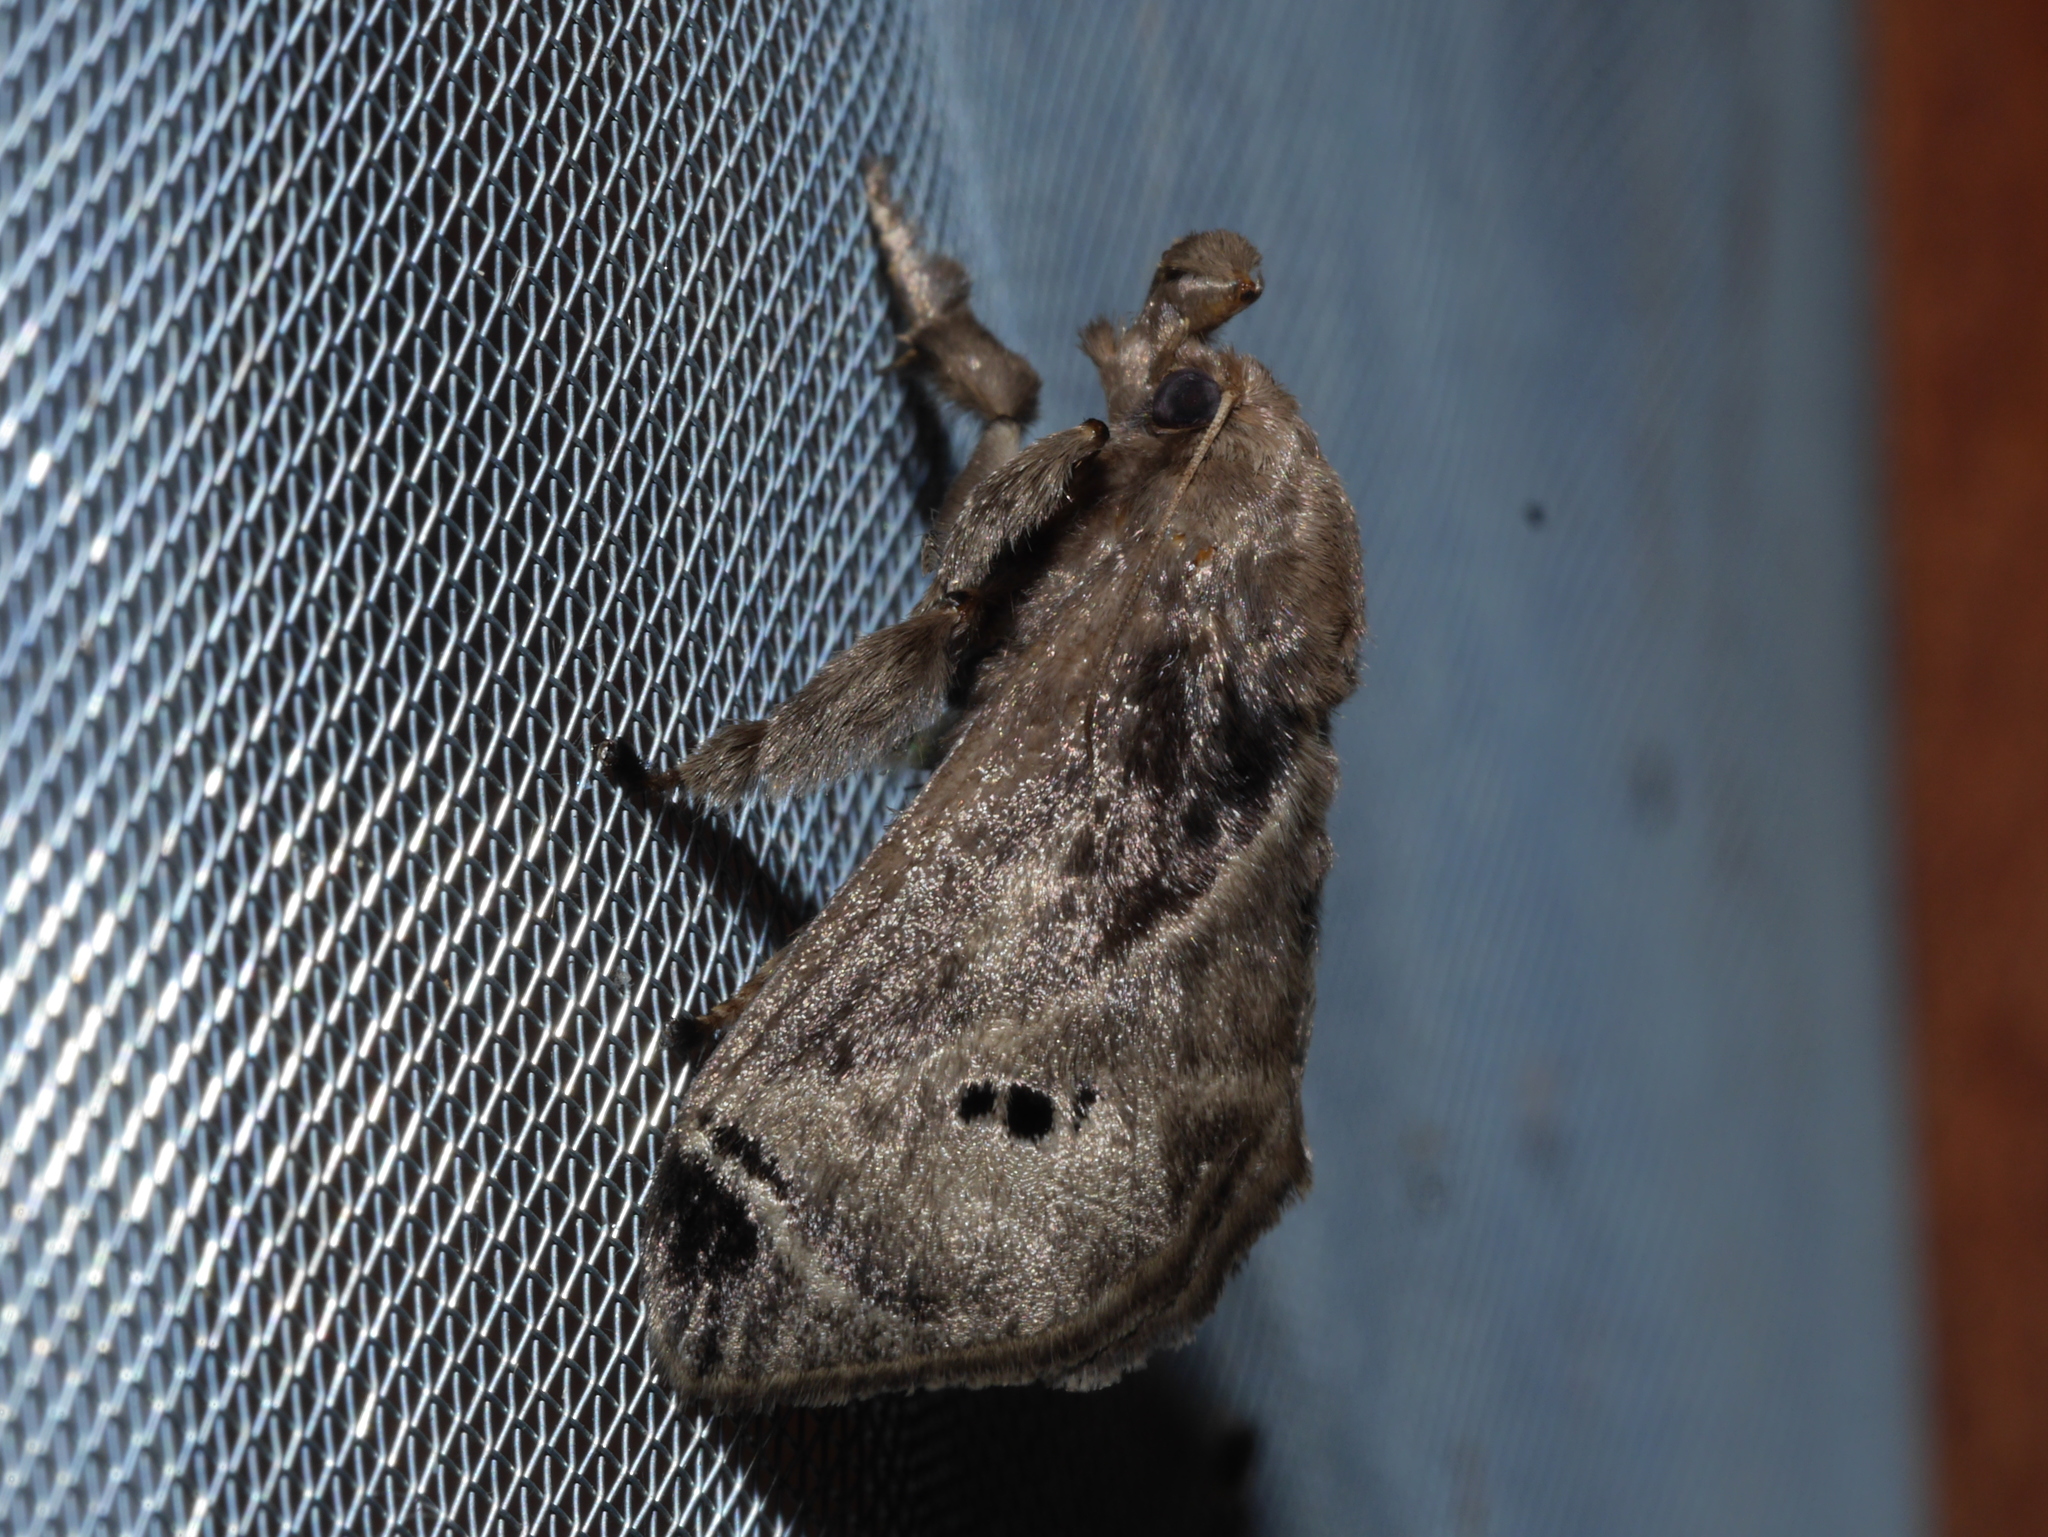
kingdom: Animalia
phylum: Arthropoda
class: Insecta
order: Lepidoptera
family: Limacodidae
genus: Ctenolita
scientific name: Ctenolita anacompa
